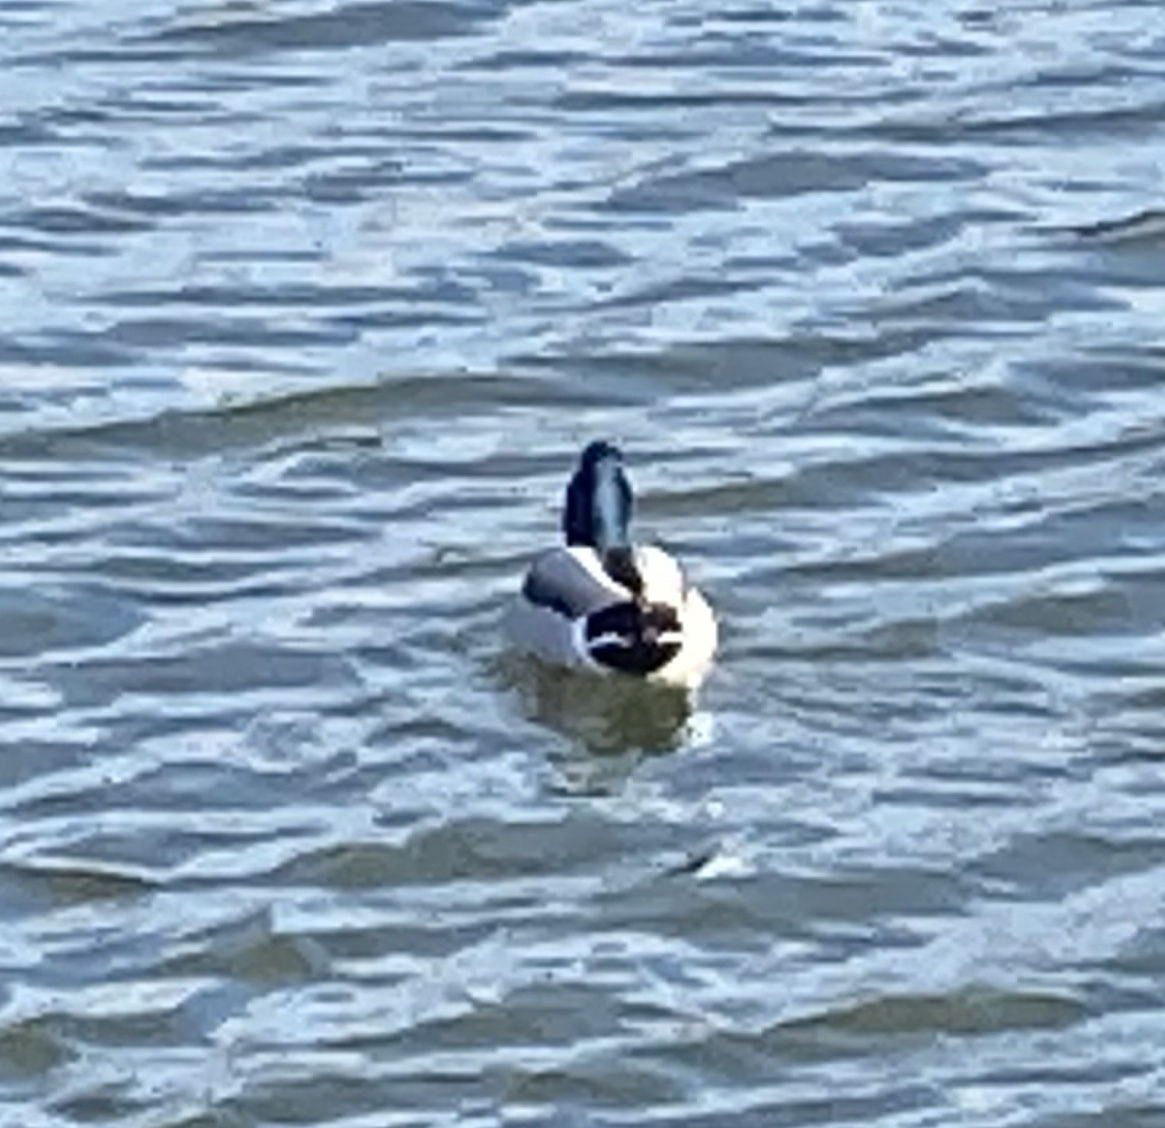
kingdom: Animalia
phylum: Chordata
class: Aves
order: Anseriformes
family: Anatidae
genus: Anas
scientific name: Anas platyrhynchos
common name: Mallard
